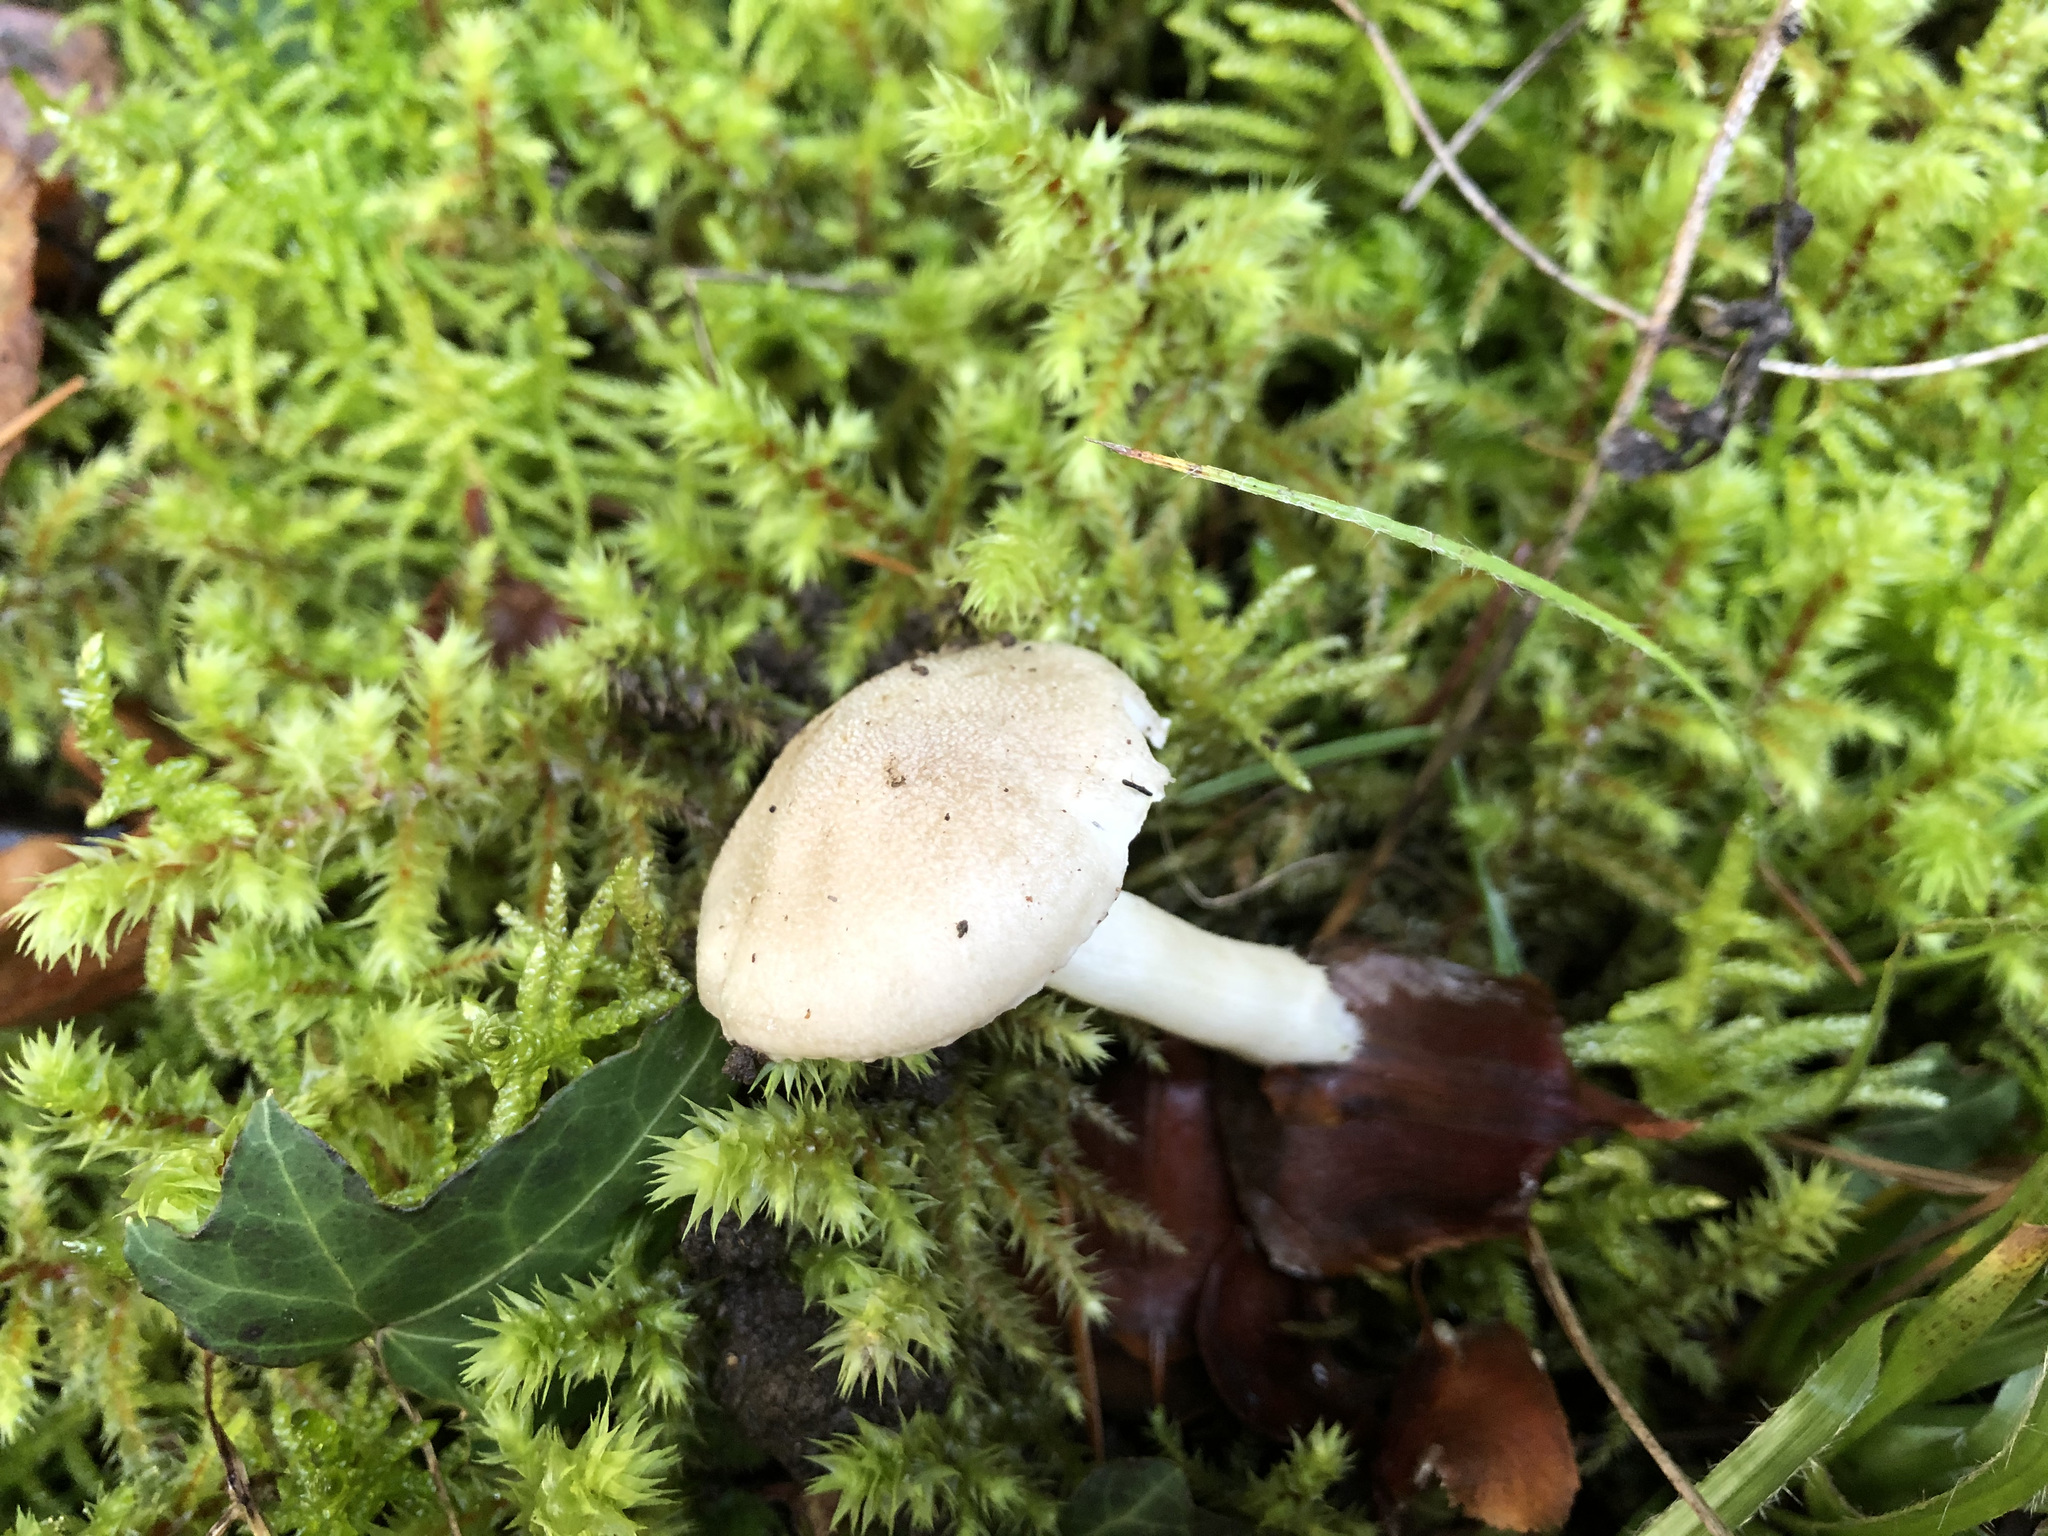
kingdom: Fungi
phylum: Basidiomycota
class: Agaricomycetes
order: Agaricales
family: Hygrophoraceae
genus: Hygrophorus
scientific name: Hygrophorus agathosmus
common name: Almond woodwax
